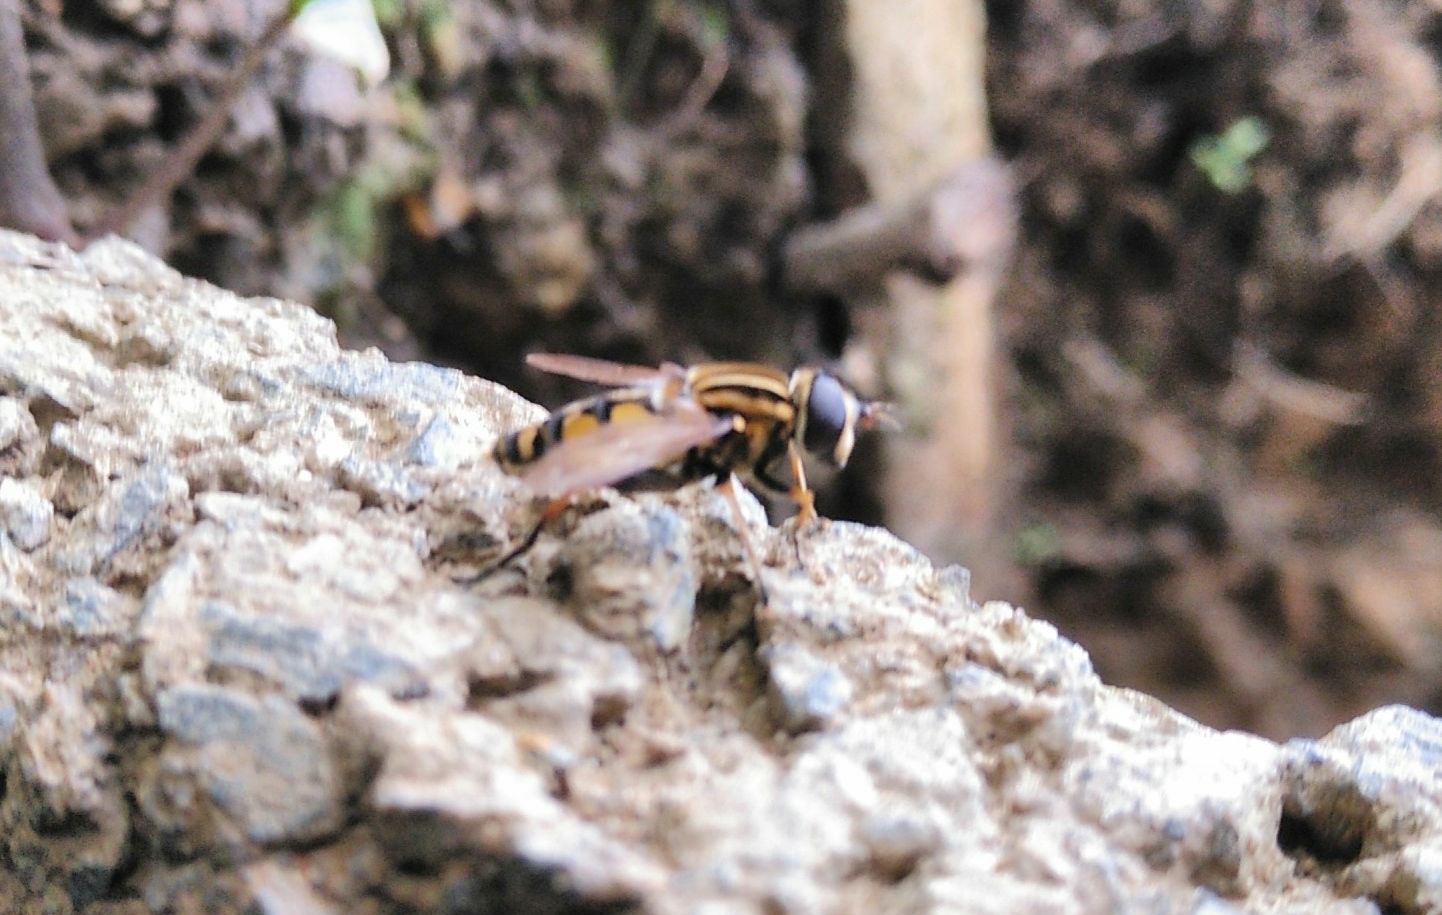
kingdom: Animalia
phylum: Arthropoda
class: Insecta
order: Diptera
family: Syrphidae
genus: Helophilus
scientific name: Helophilus pendulus
